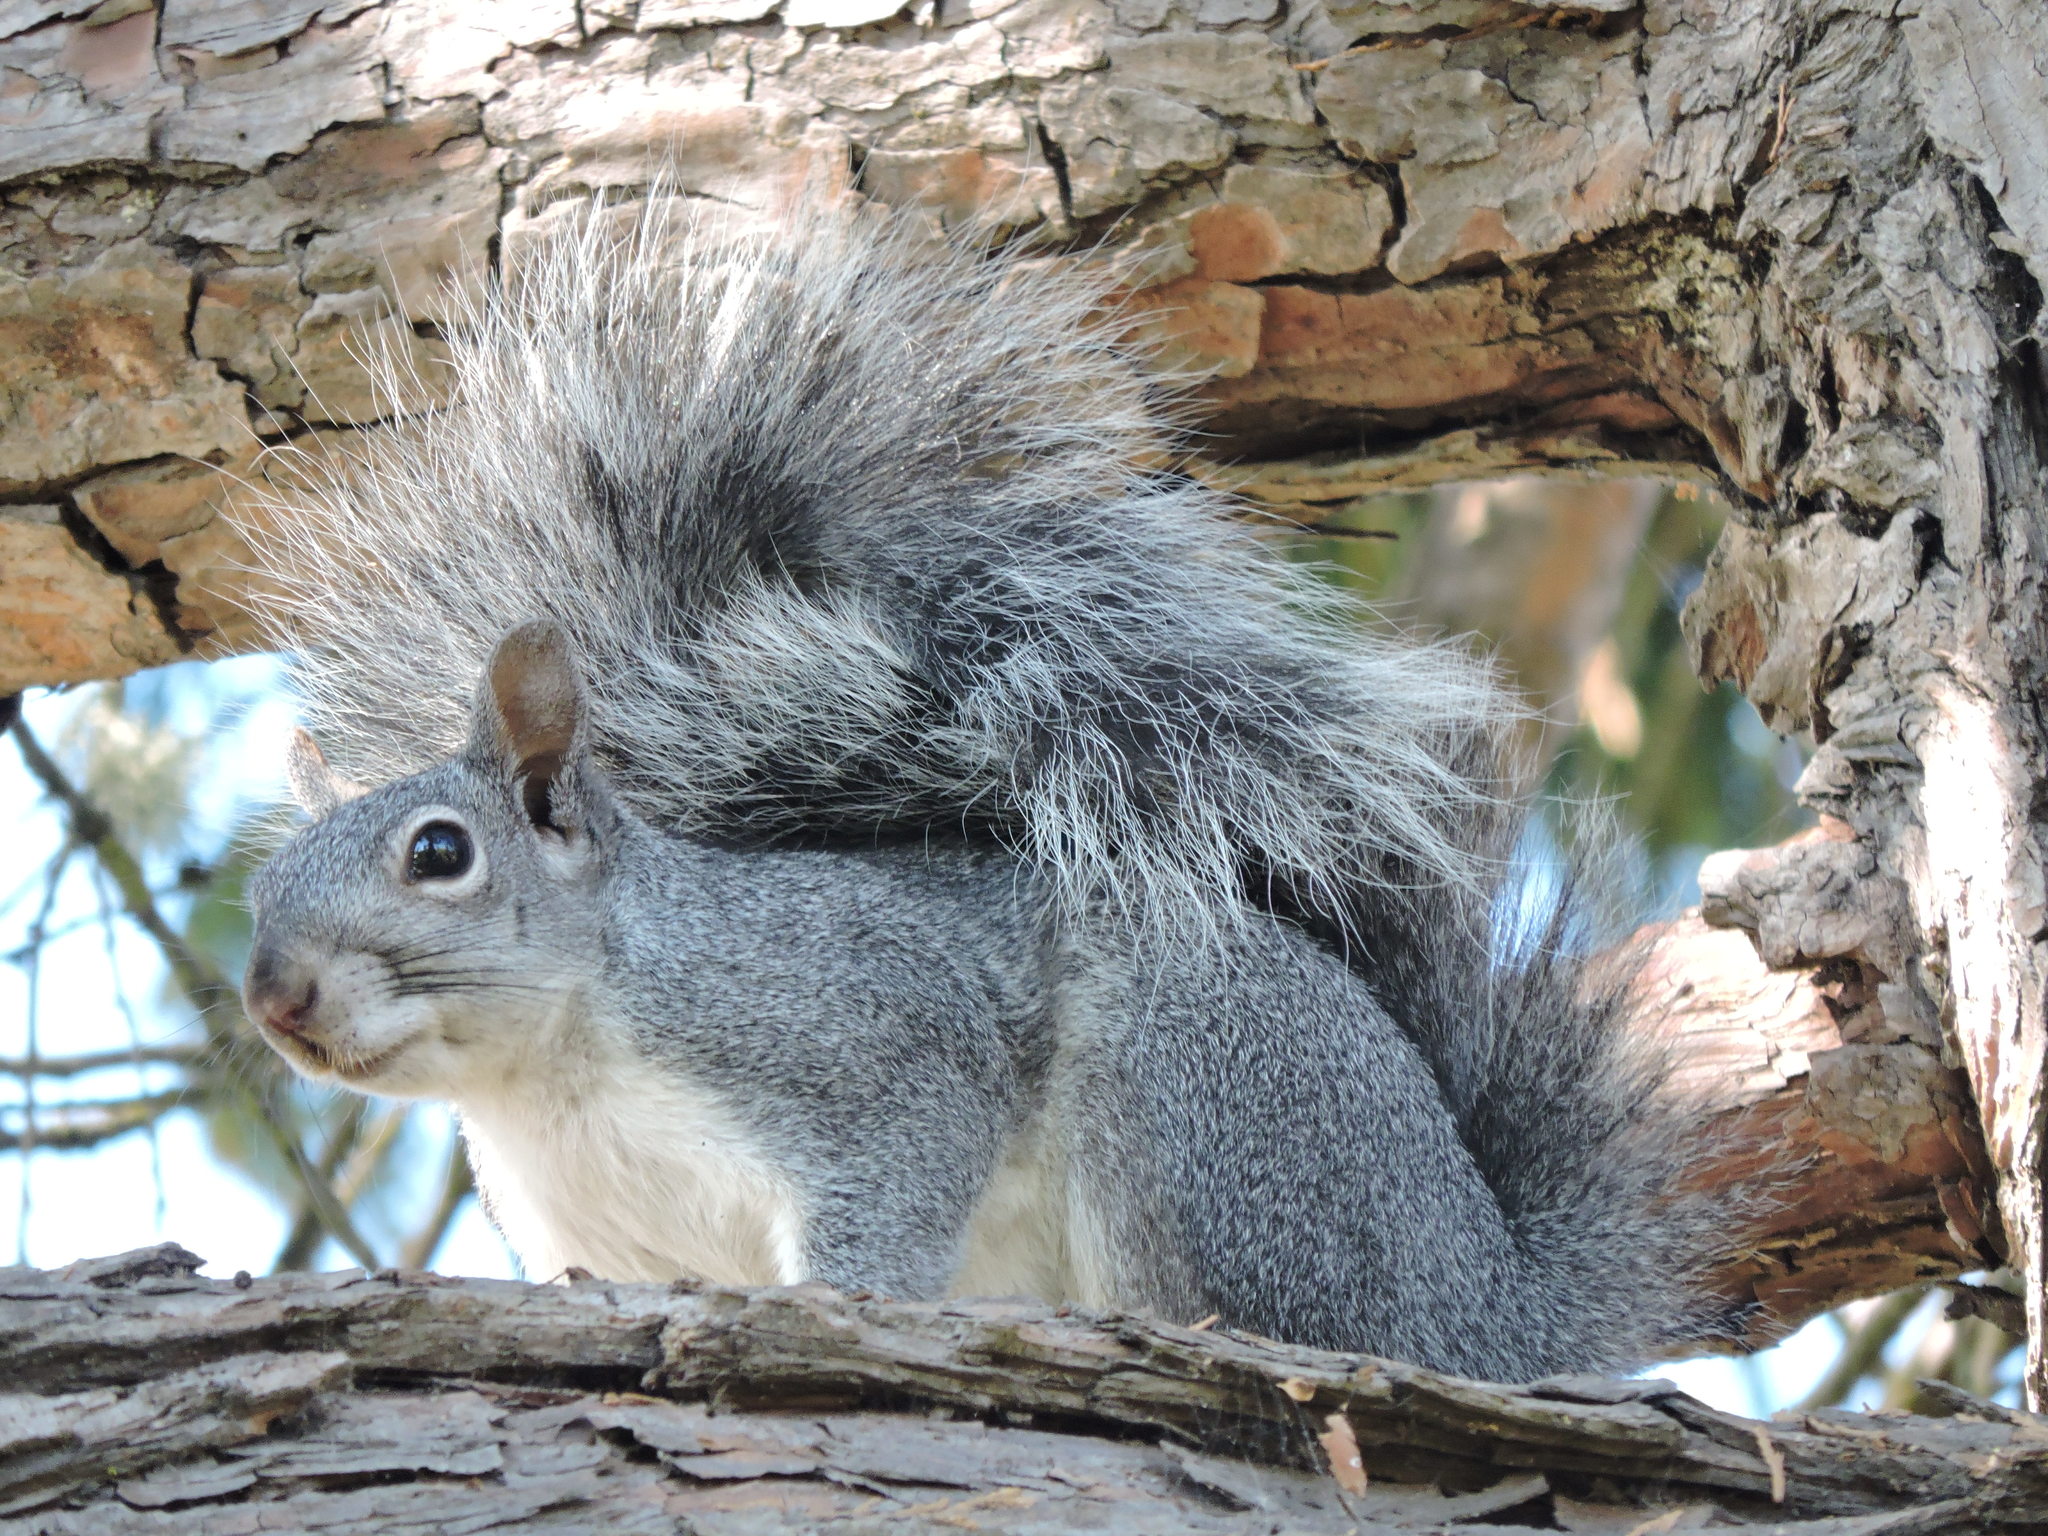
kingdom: Animalia
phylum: Chordata
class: Mammalia
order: Rodentia
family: Sciuridae
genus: Sciurus
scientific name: Sciurus griseus
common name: Western gray squirrel
